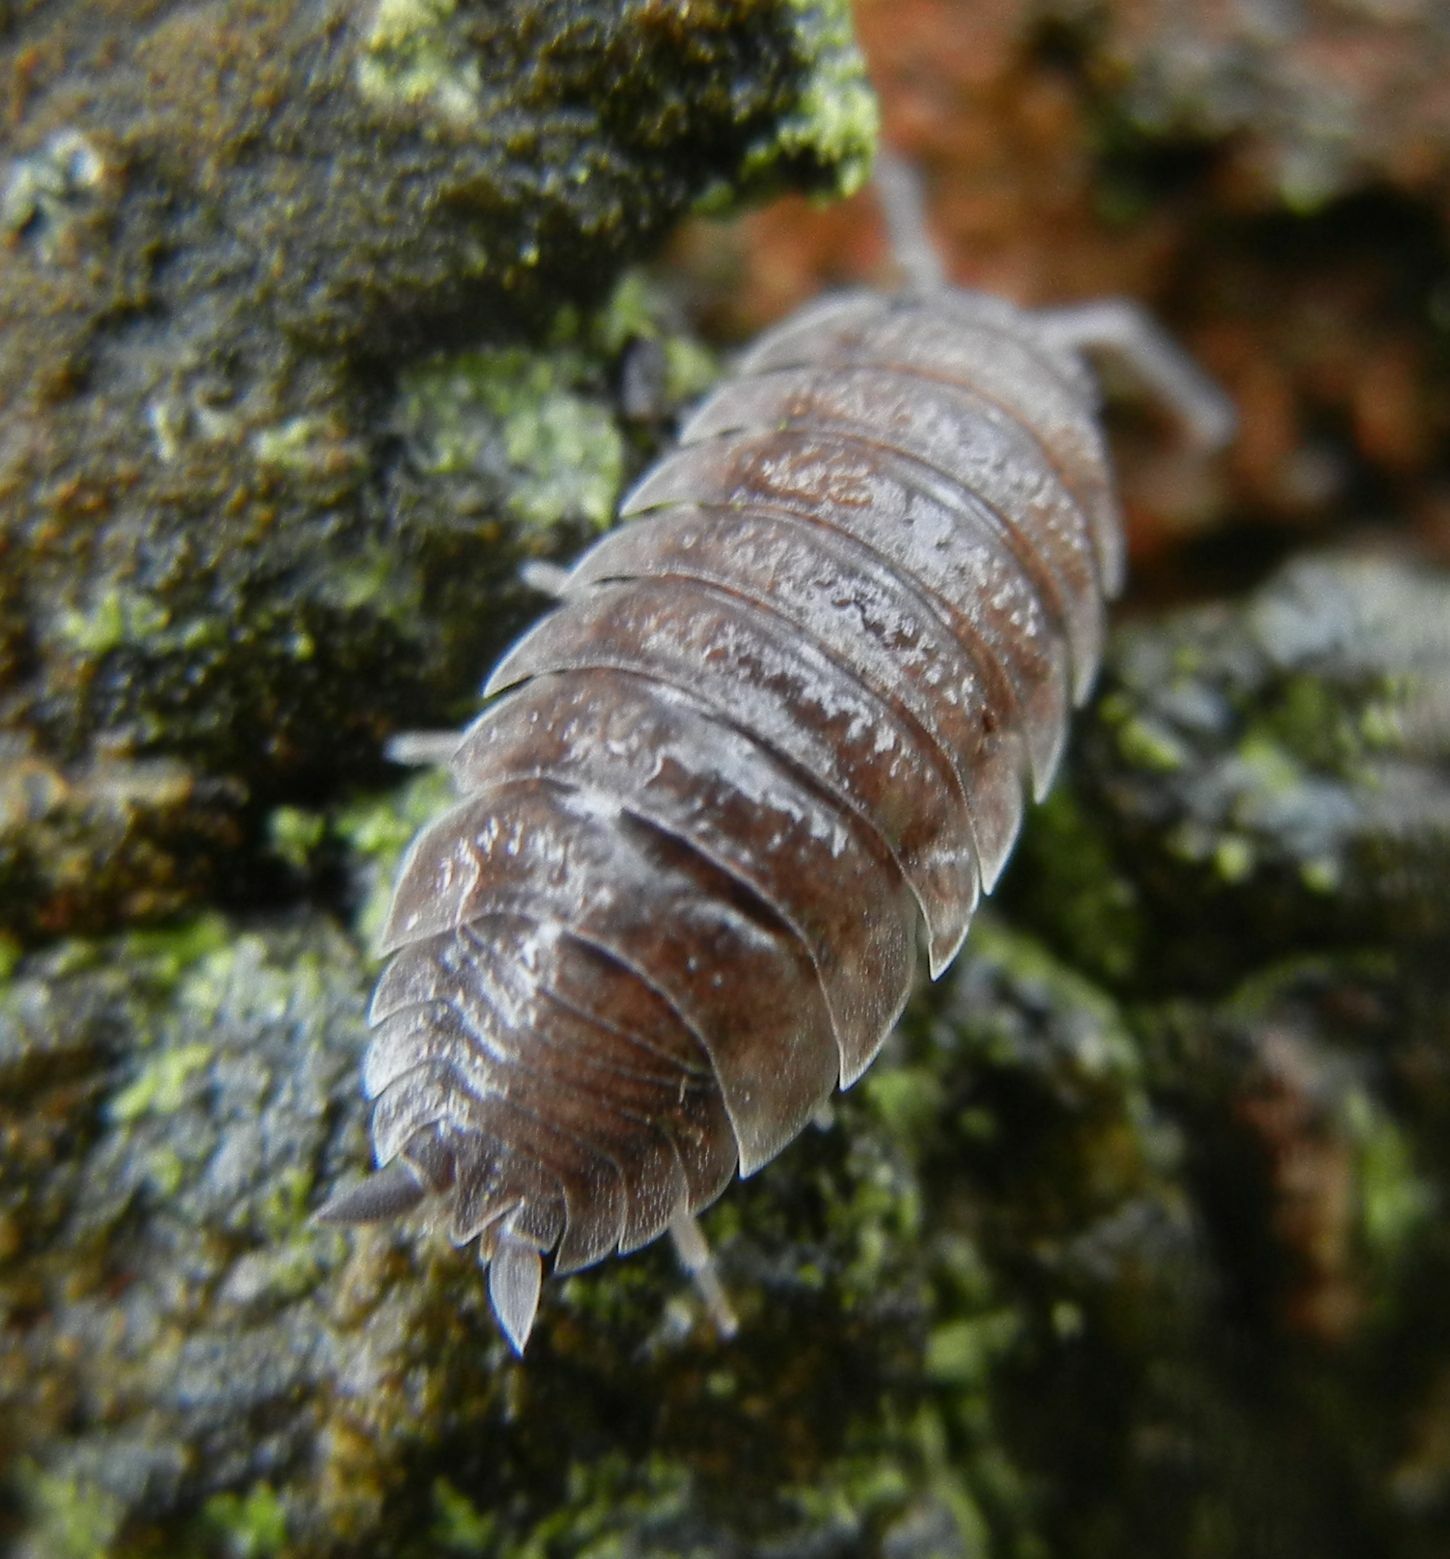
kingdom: Animalia
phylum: Arthropoda
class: Malacostraca
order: Isopoda
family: Porcellionidae
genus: Porcellio
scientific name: Porcellio scaber
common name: Common rough woodlouse
